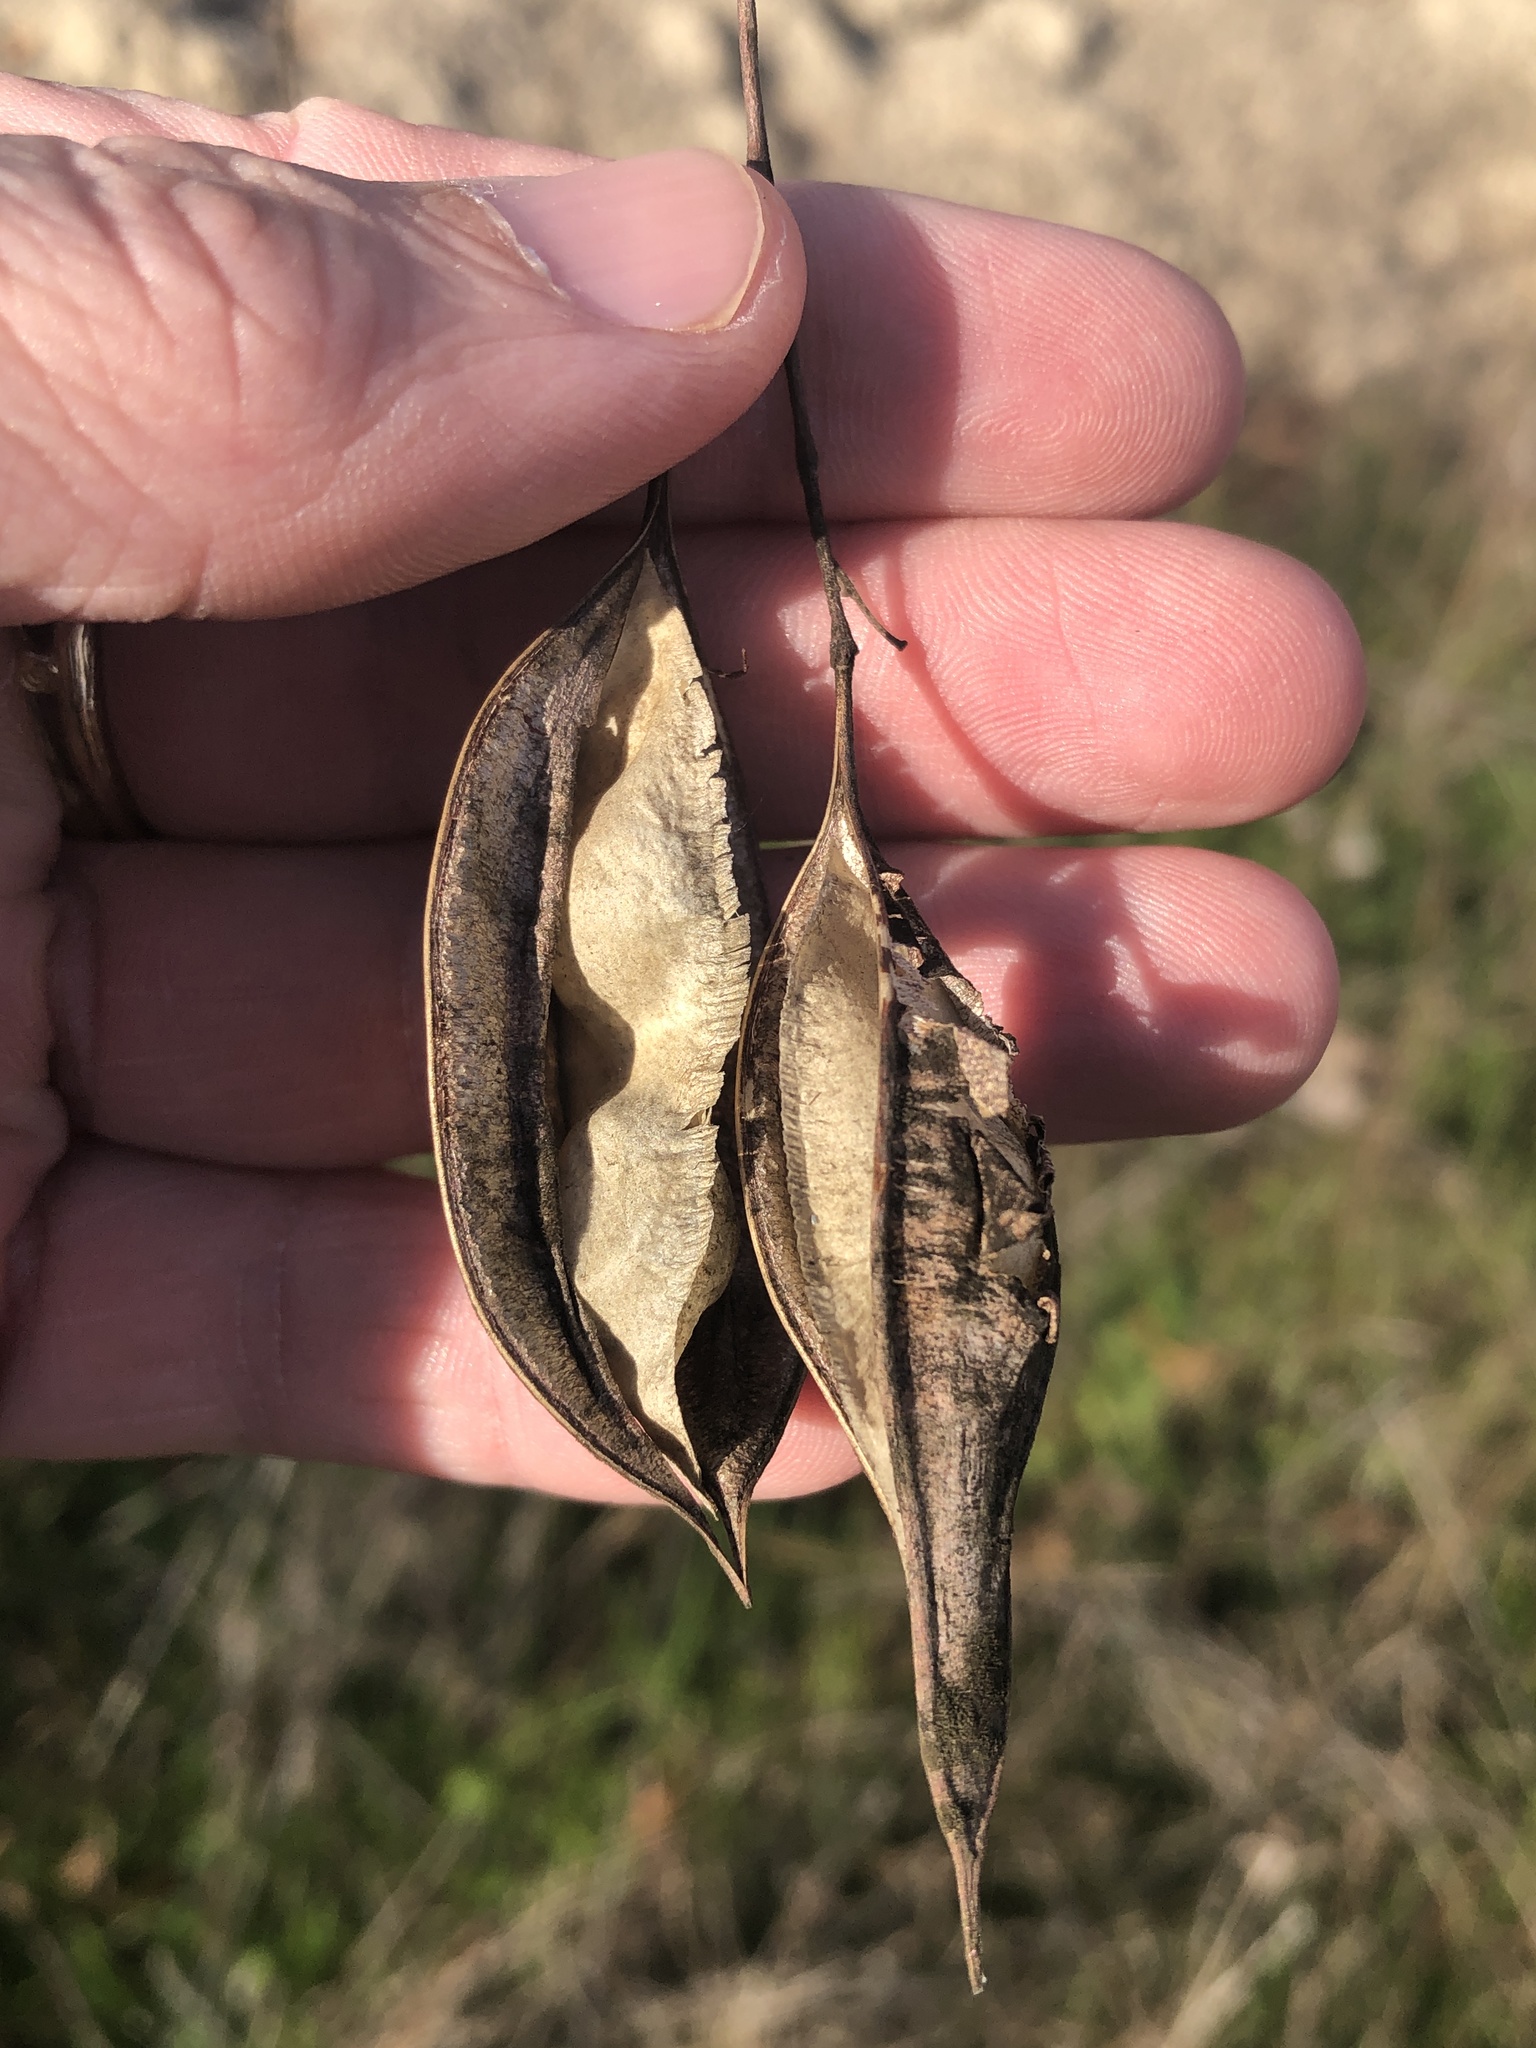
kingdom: Plantae
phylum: Tracheophyta
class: Magnoliopsida
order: Fabales
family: Fabaceae
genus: Sesbania
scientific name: Sesbania vesicaria
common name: Bagpod
